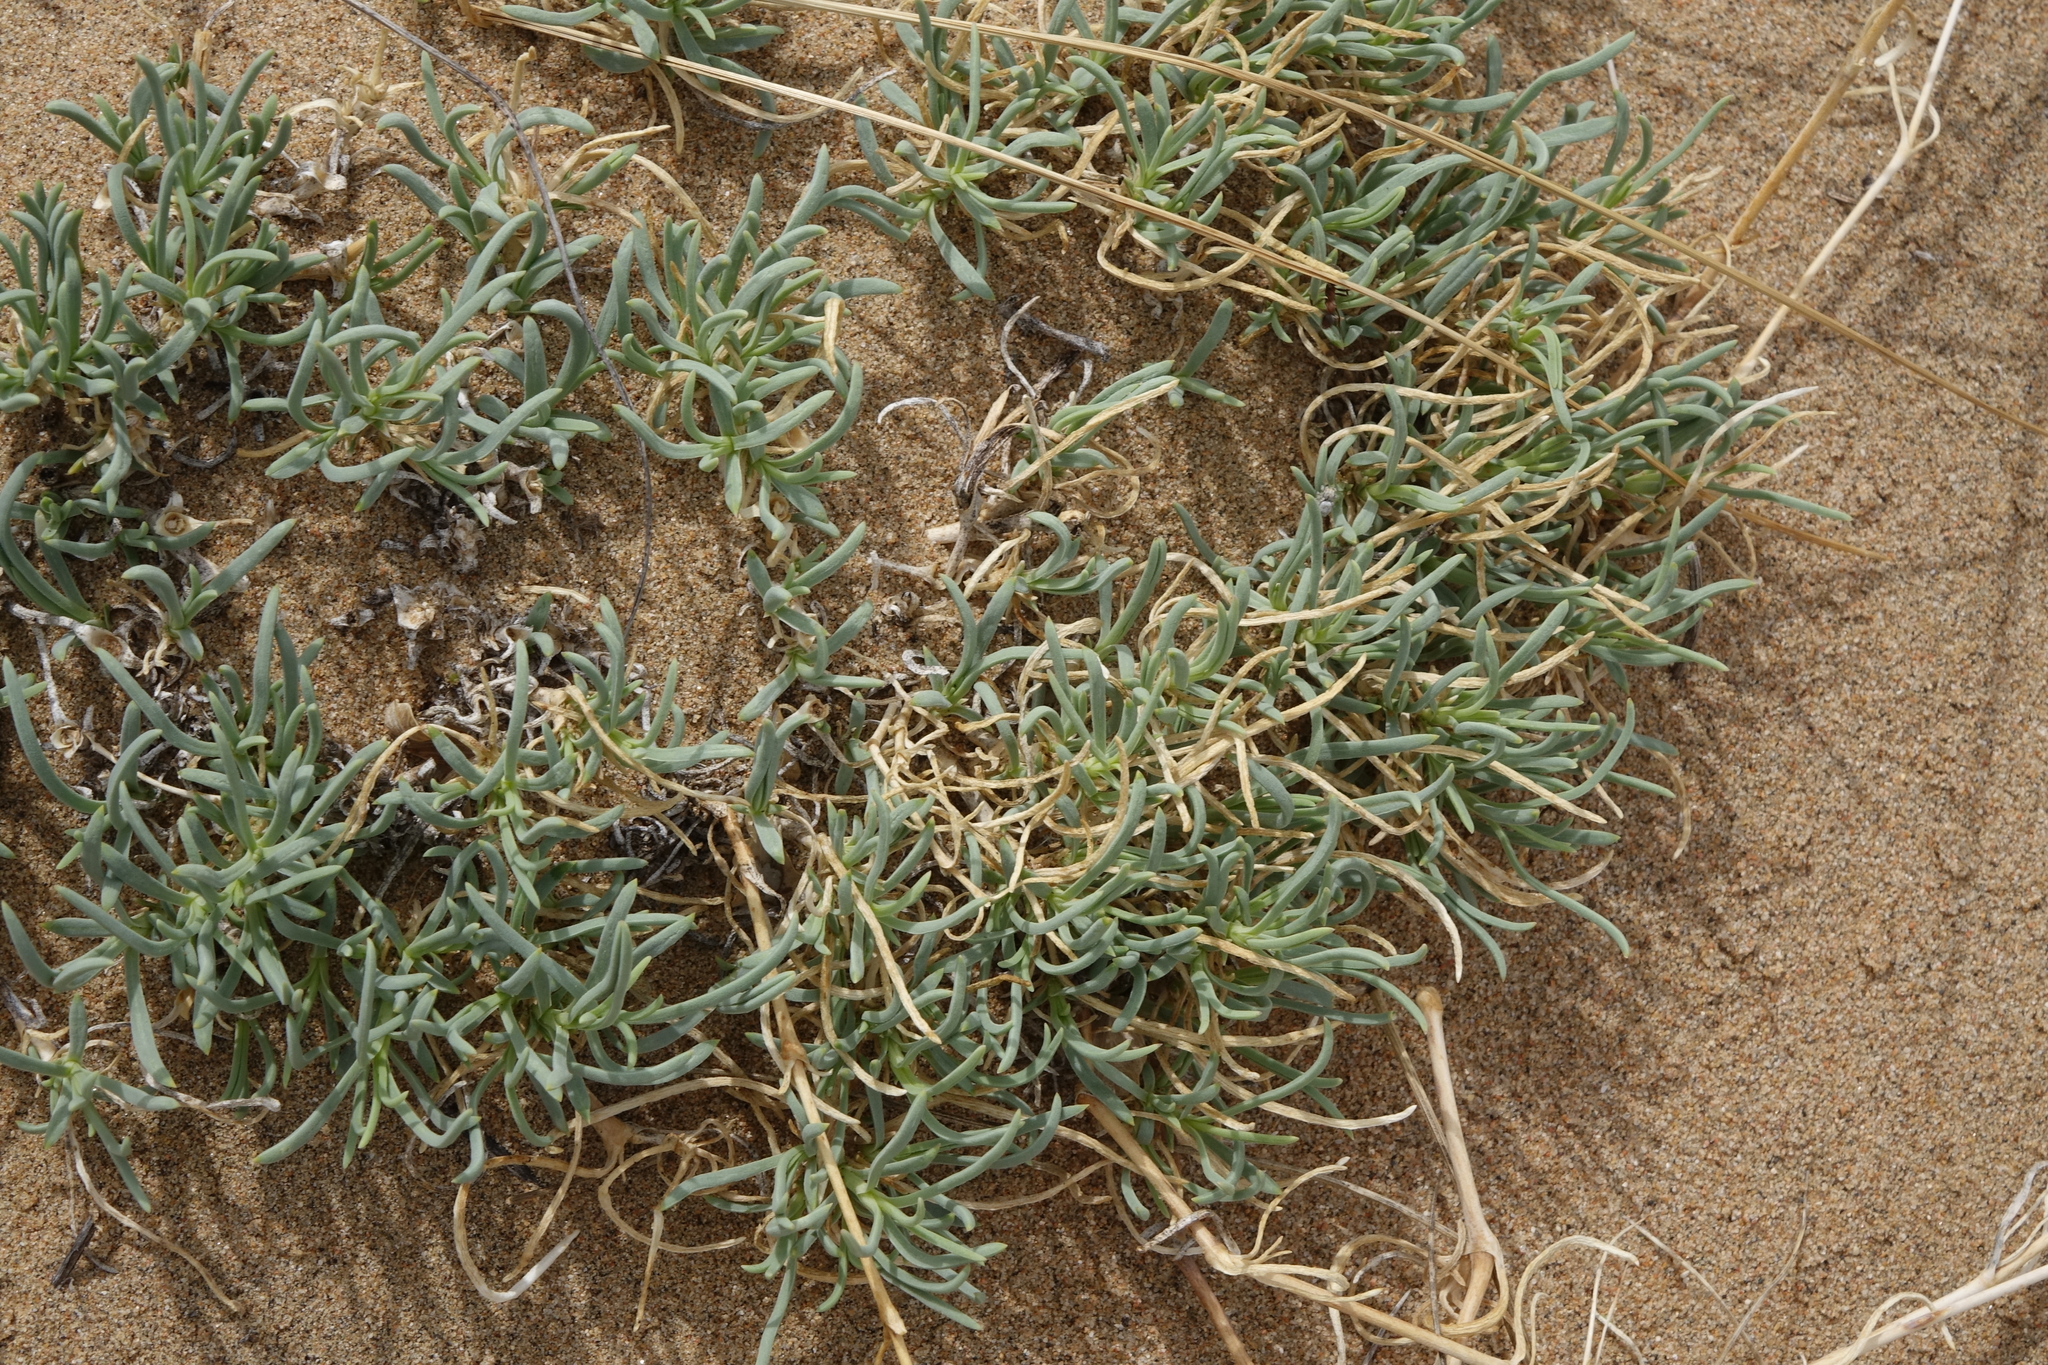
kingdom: Plantae
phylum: Tracheophyta
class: Magnoliopsida
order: Caryophyllales
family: Caryophyllaceae
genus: Gypsophila
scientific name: Gypsophila patrinii
